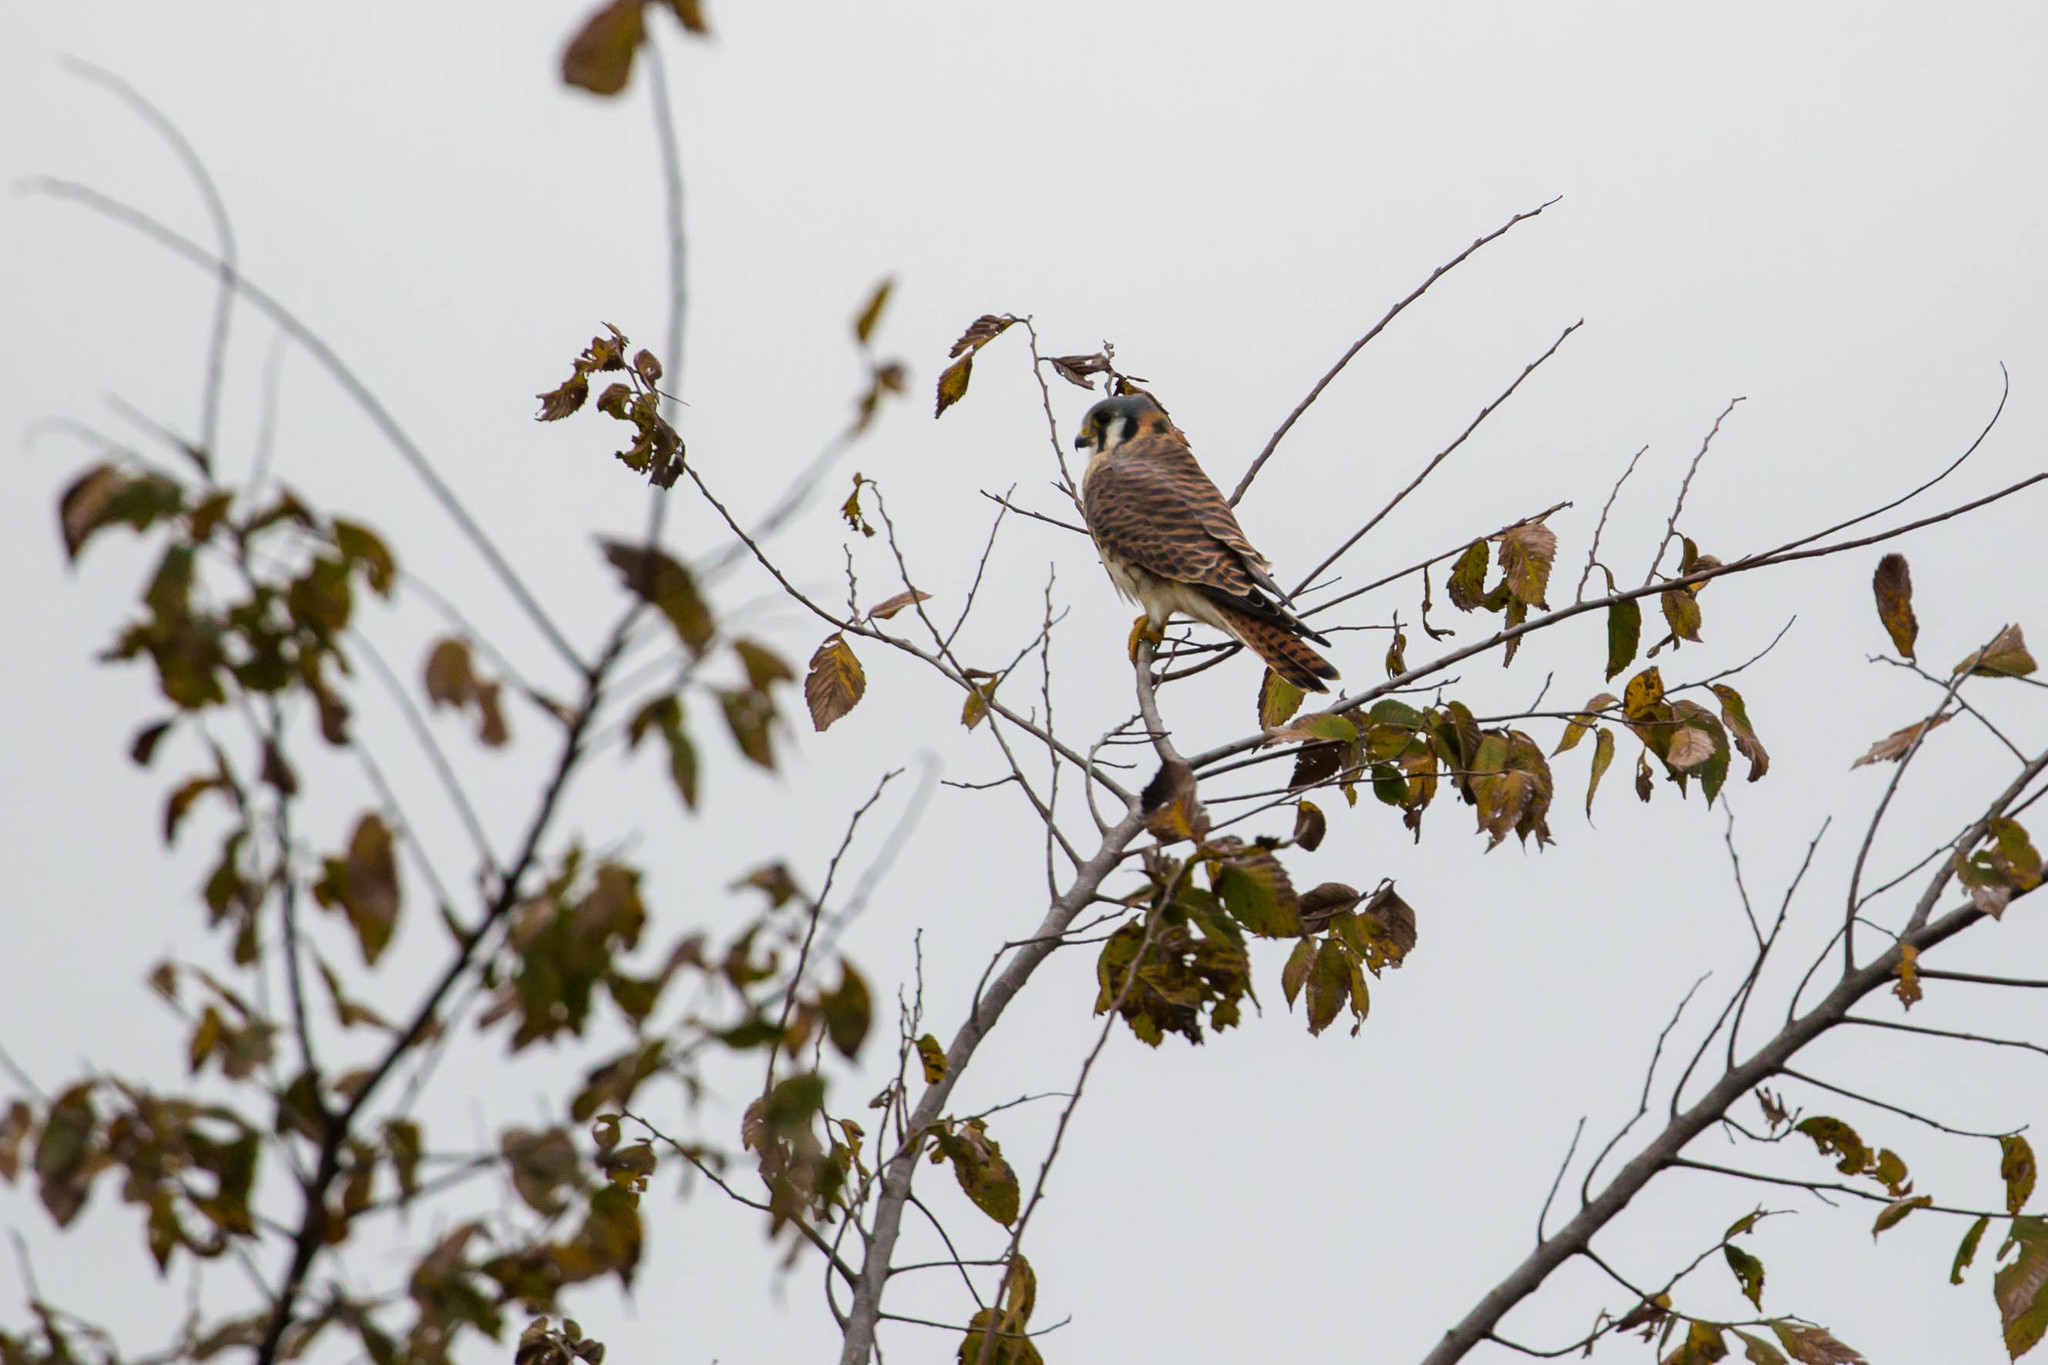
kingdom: Animalia
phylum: Chordata
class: Aves
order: Falconiformes
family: Falconidae
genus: Falco
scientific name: Falco sparverius
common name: American kestrel
